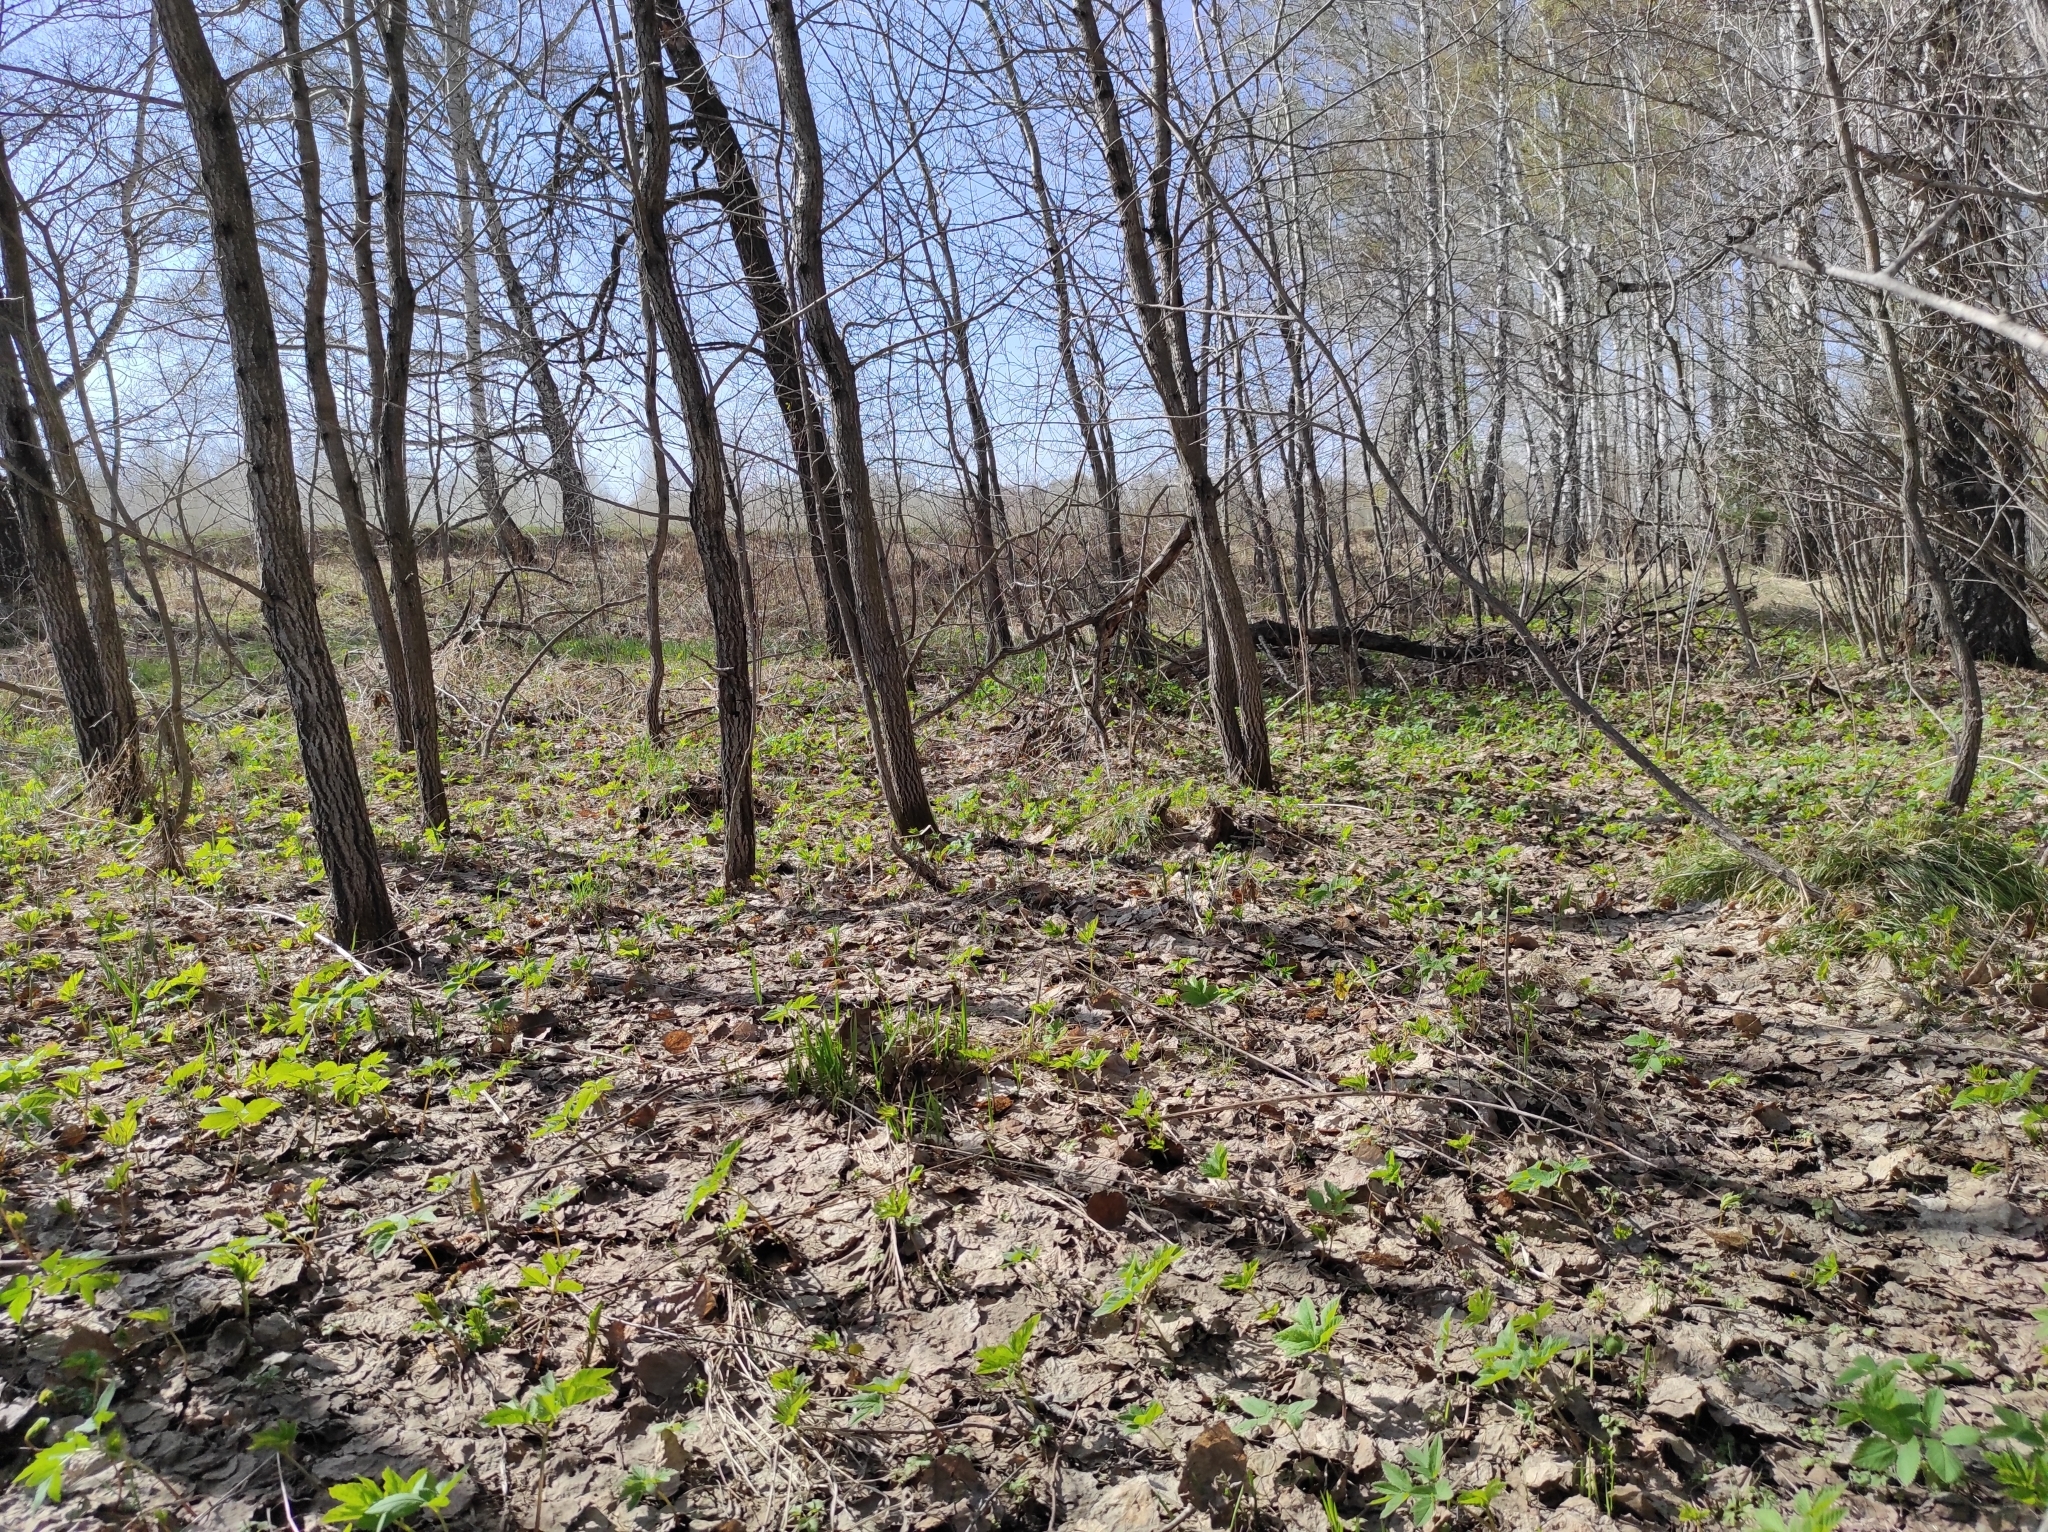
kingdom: Fungi
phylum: Ascomycota
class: Pezizomycetes
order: Pezizales
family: Morchellaceae
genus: Verpa
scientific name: Verpa bohemica
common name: Wrinkled thimble morel
